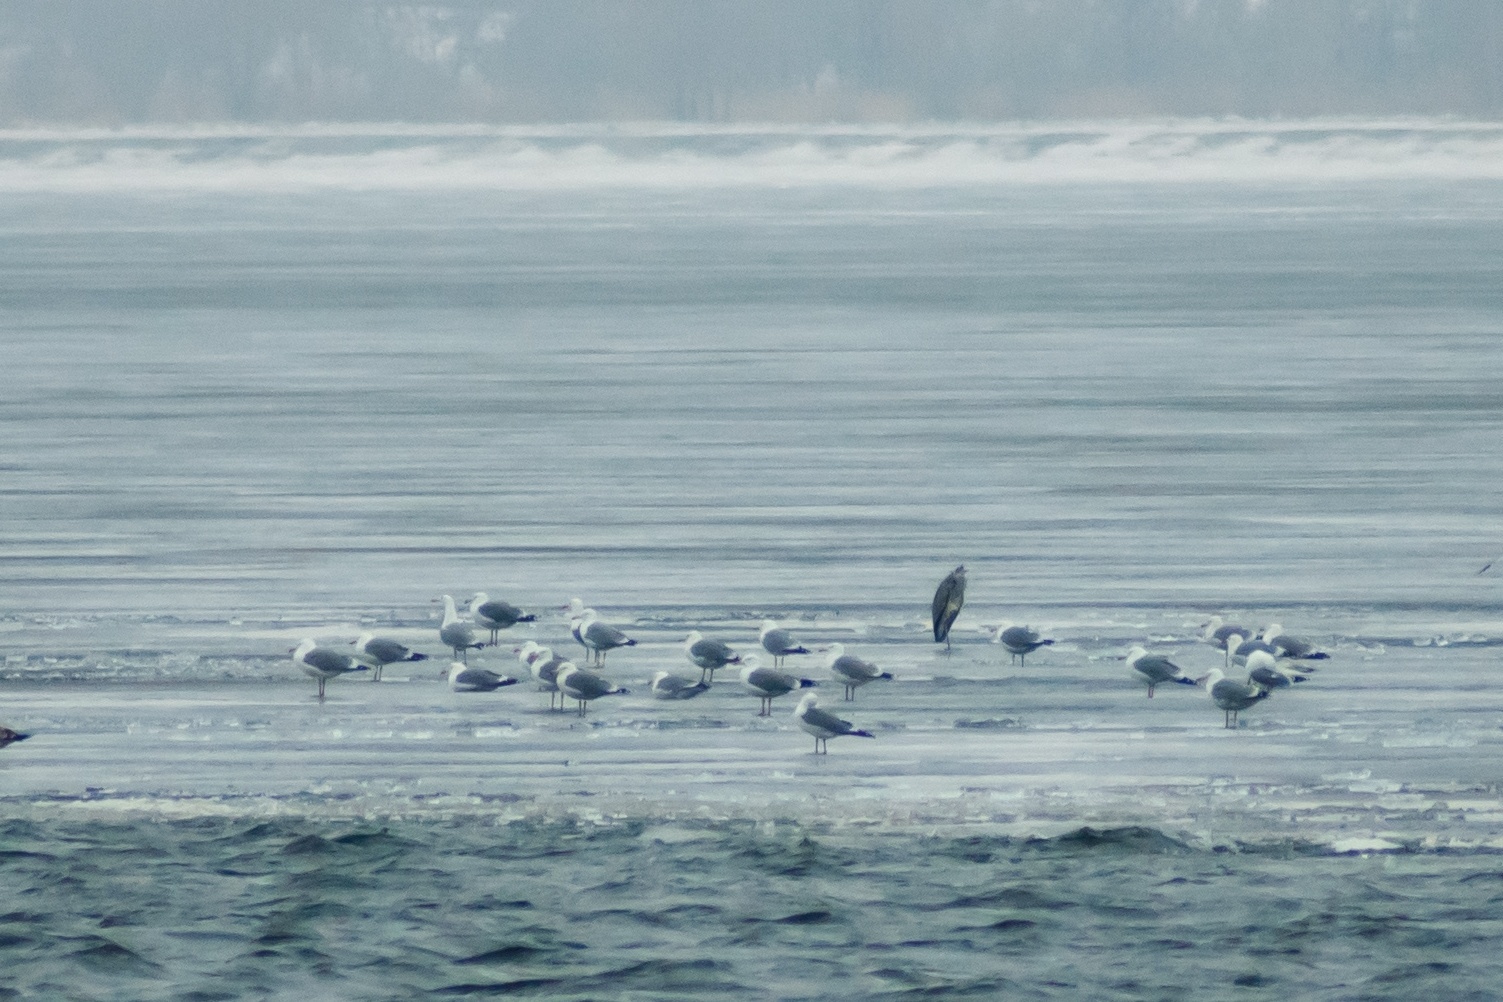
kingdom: Animalia
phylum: Chordata
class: Aves
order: Pelecaniformes
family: Ardeidae
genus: Ardea
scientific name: Ardea cinerea
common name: Grey heron
